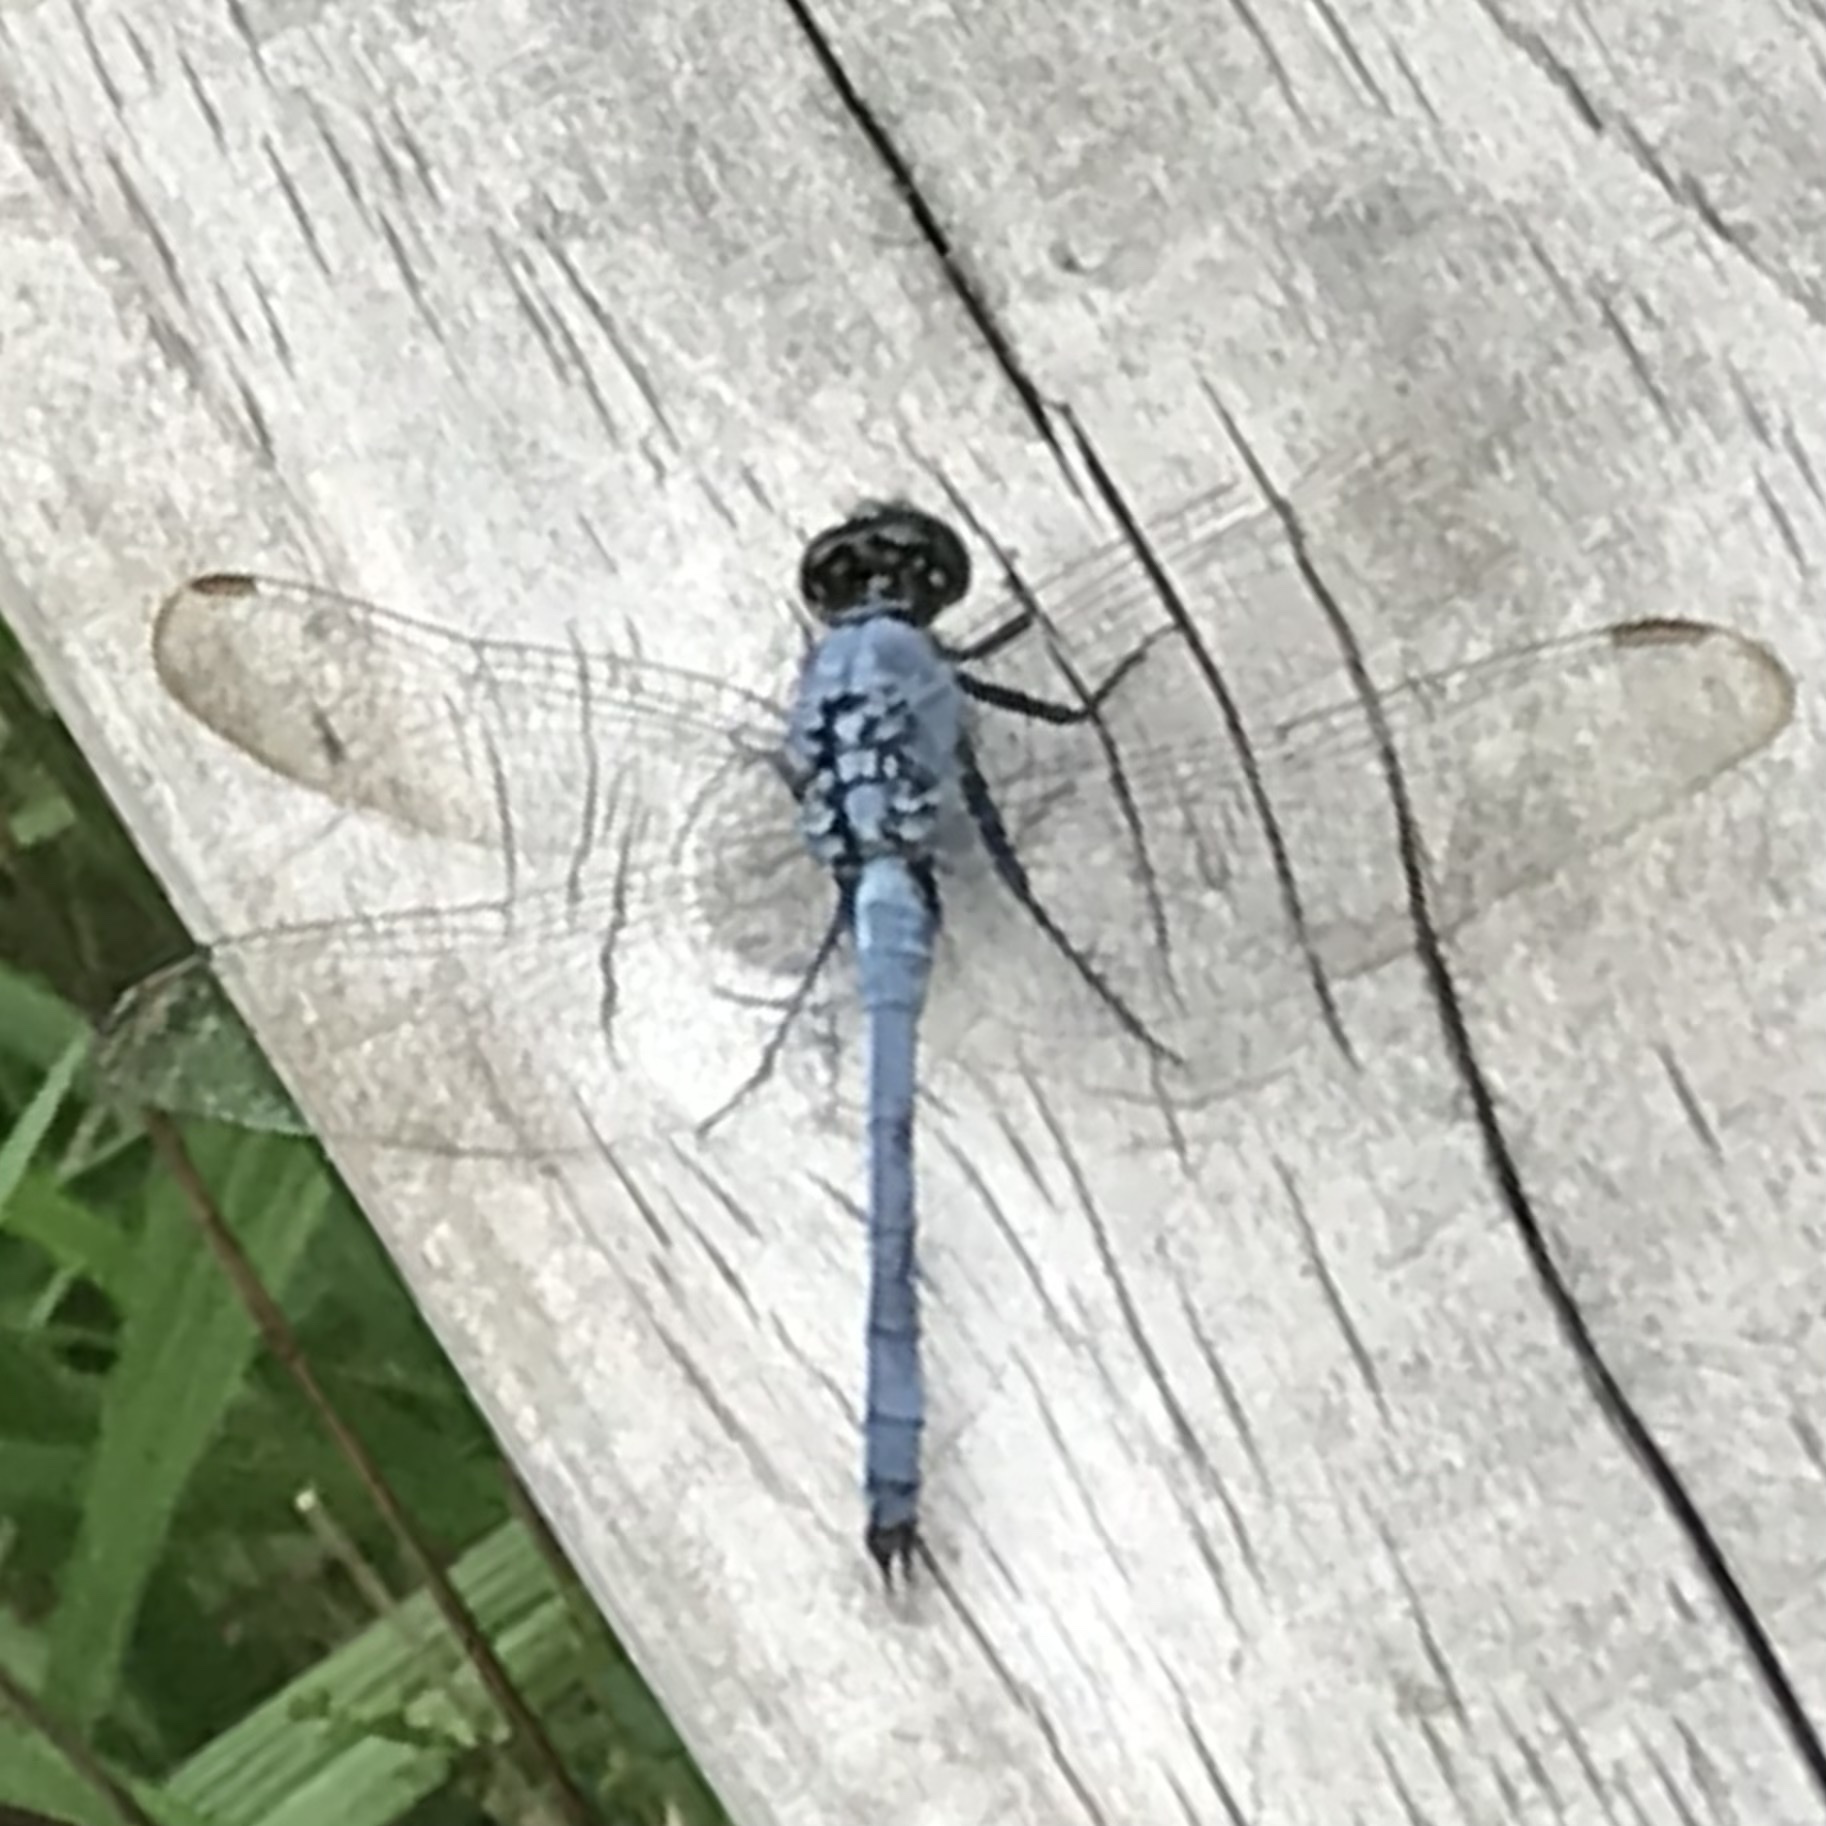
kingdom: Animalia
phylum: Arthropoda
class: Insecta
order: Odonata
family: Libellulidae
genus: Erythemis
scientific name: Erythemis simplicicollis
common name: Eastern pondhawk
